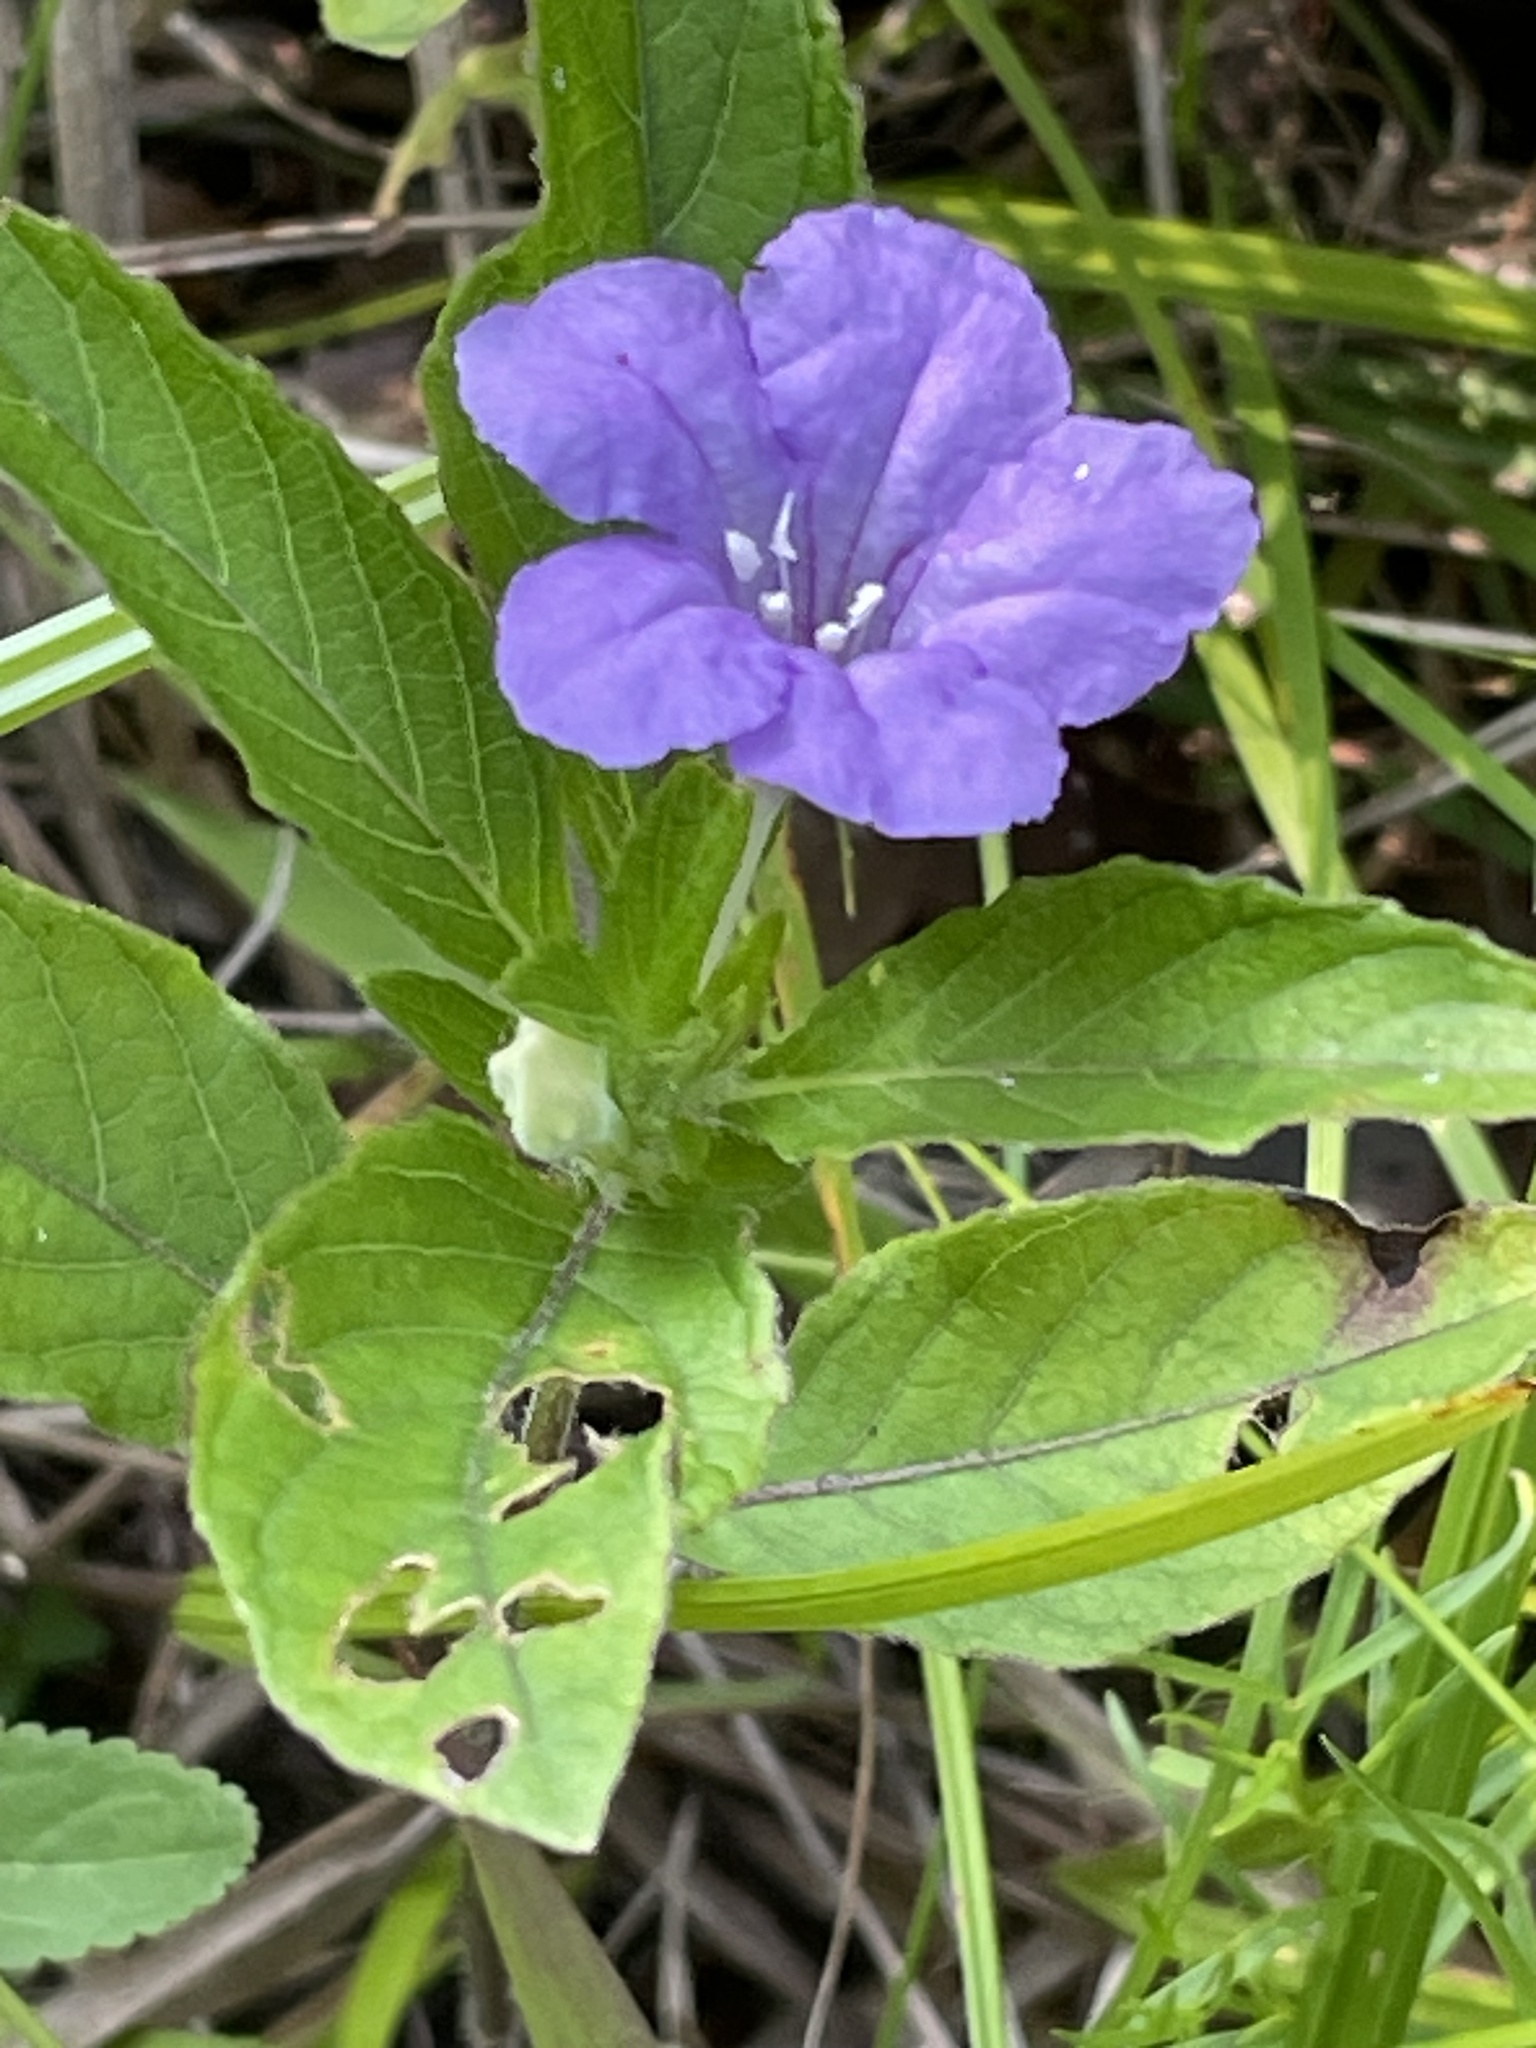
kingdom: Plantae
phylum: Tracheophyta
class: Magnoliopsida
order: Lamiales
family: Acanthaceae
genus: Ruellia
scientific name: Ruellia caroliniensis
